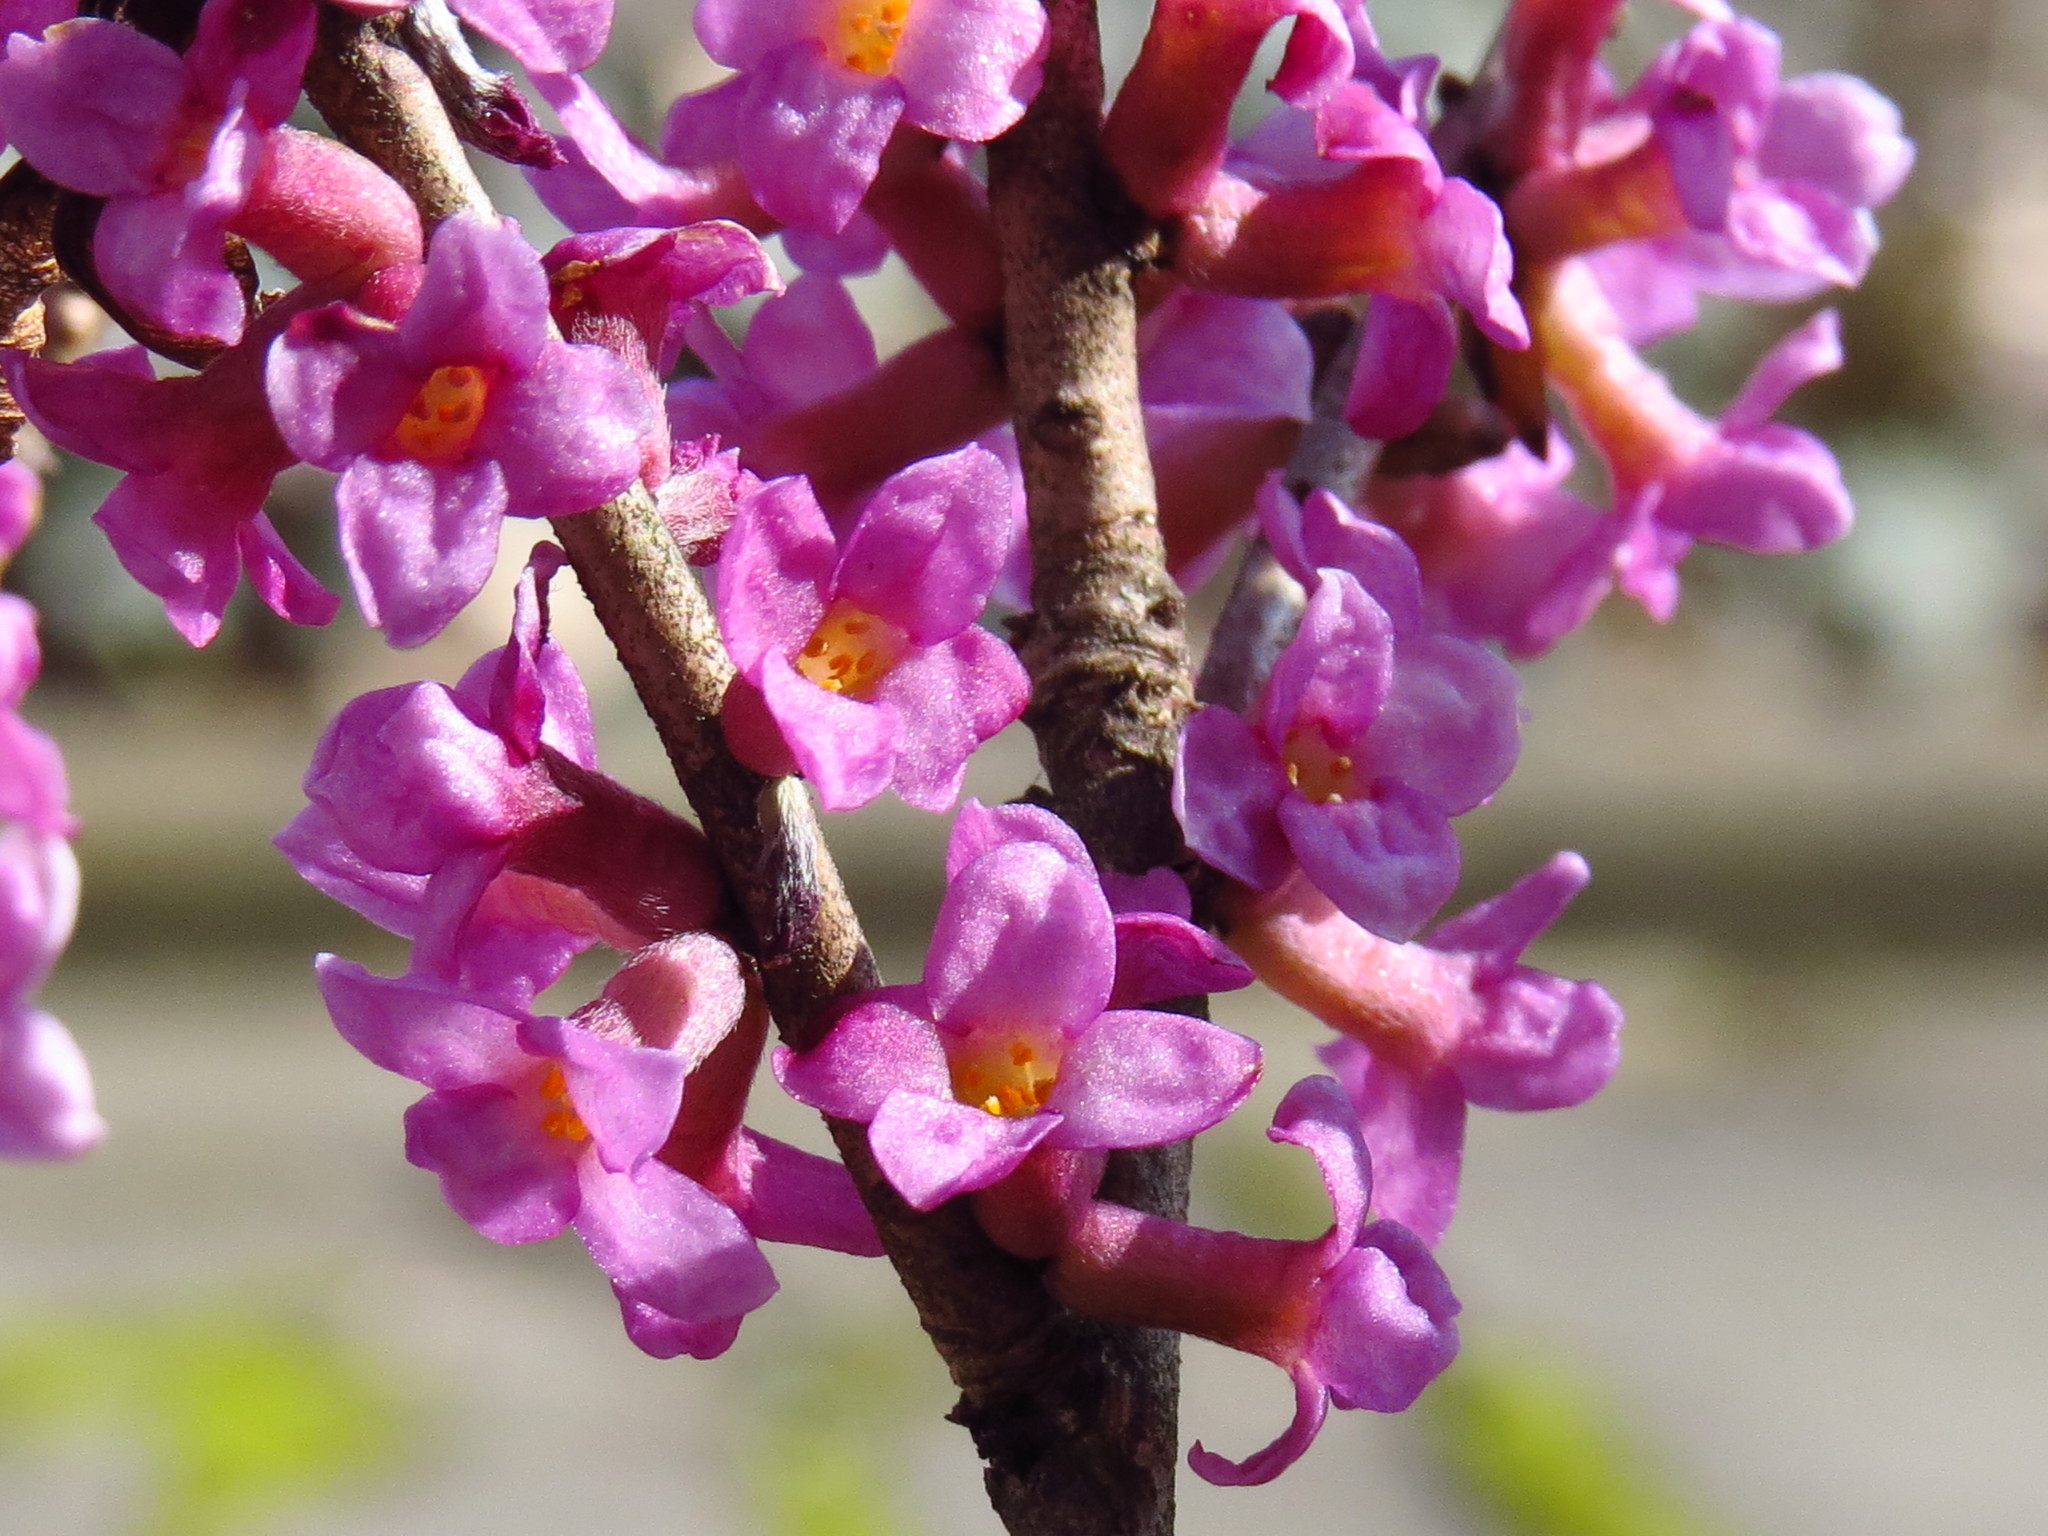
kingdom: Plantae
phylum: Tracheophyta
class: Magnoliopsida
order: Malvales
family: Thymelaeaceae
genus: Daphne
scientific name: Daphne mezereum
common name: Mezereon
